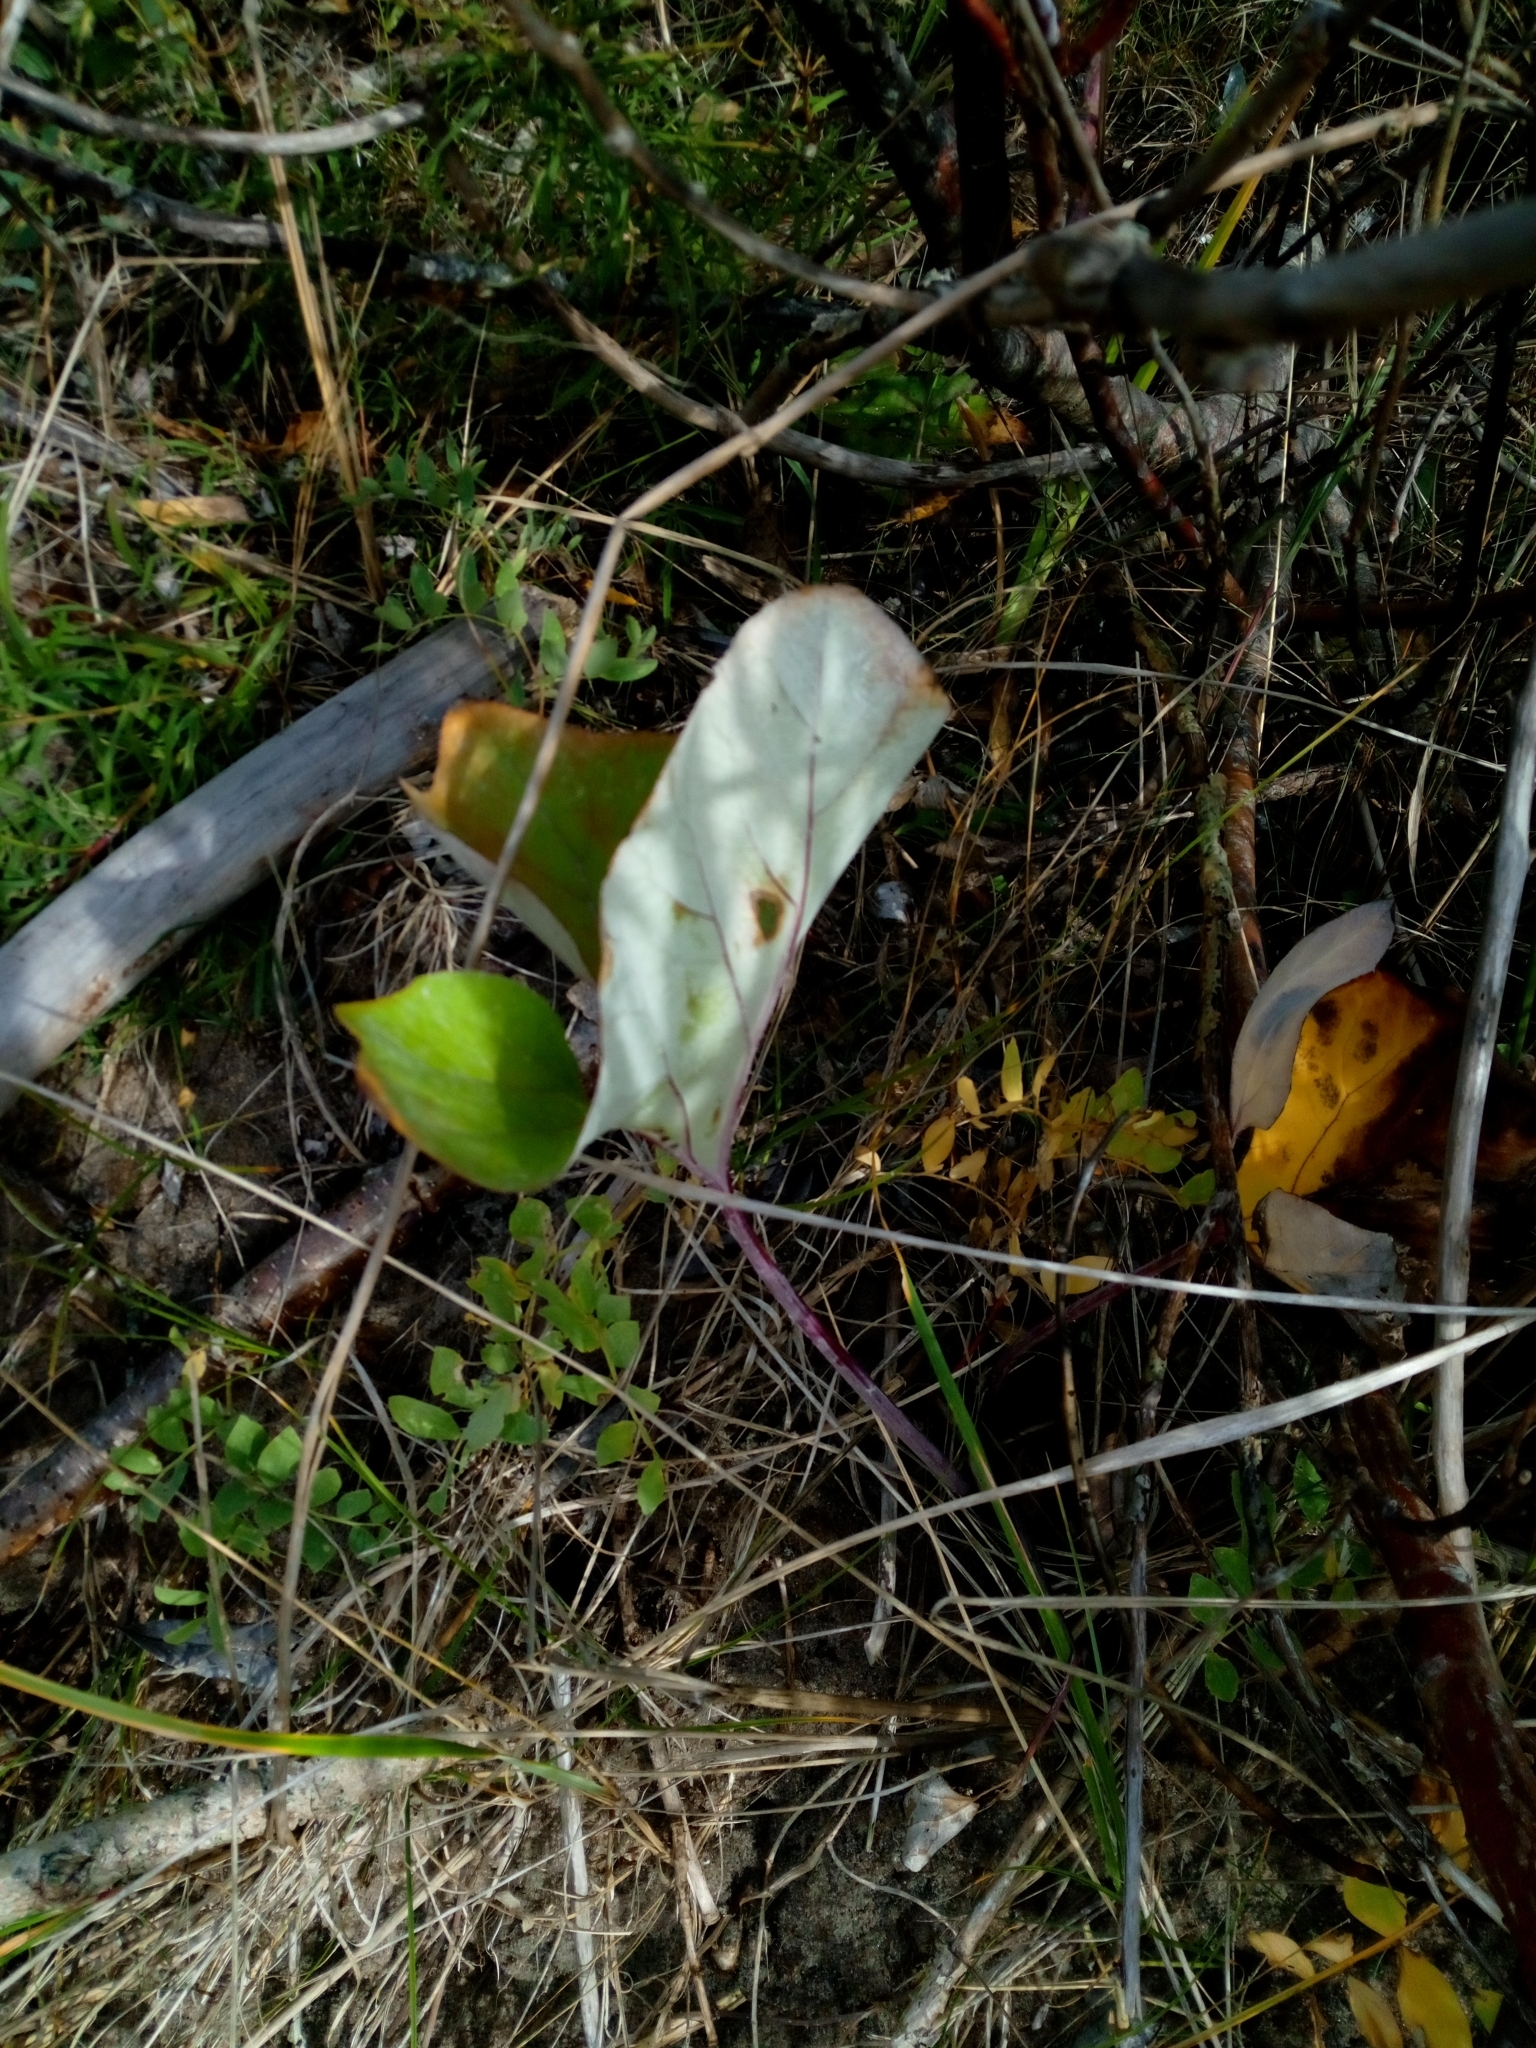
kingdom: Plantae
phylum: Tracheophyta
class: Magnoliopsida
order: Asterales
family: Asteraceae
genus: Petasites
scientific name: Petasites spurius
